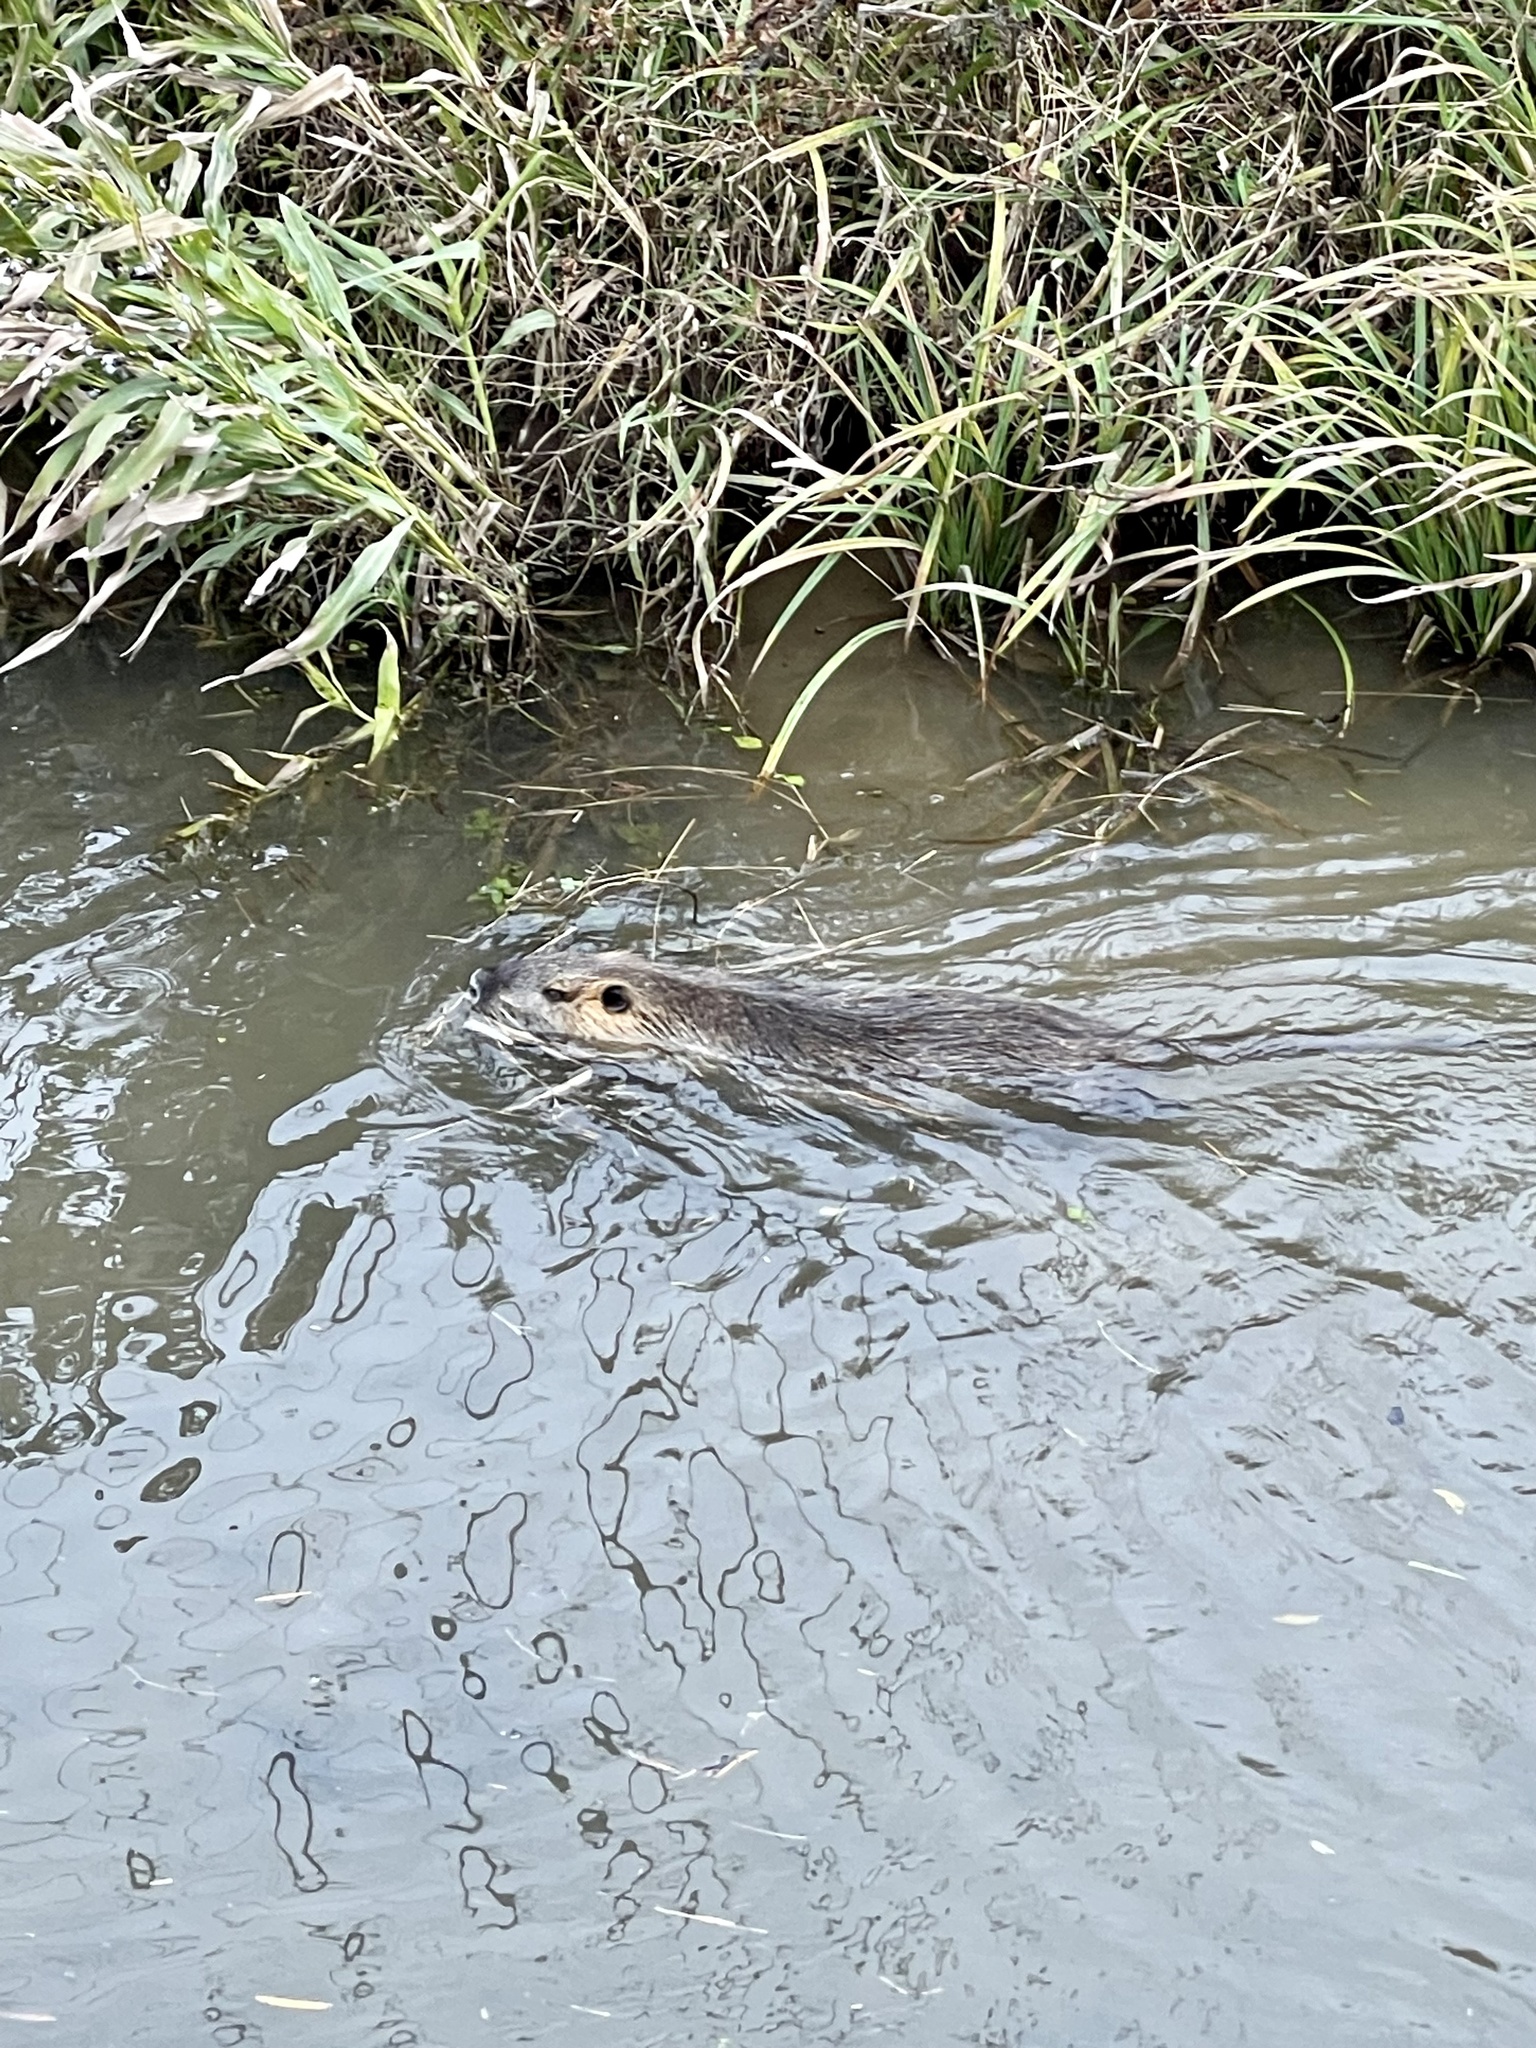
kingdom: Animalia
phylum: Chordata
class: Mammalia
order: Rodentia
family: Myocastoridae
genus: Myocastor
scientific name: Myocastor coypus
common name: Coypu
